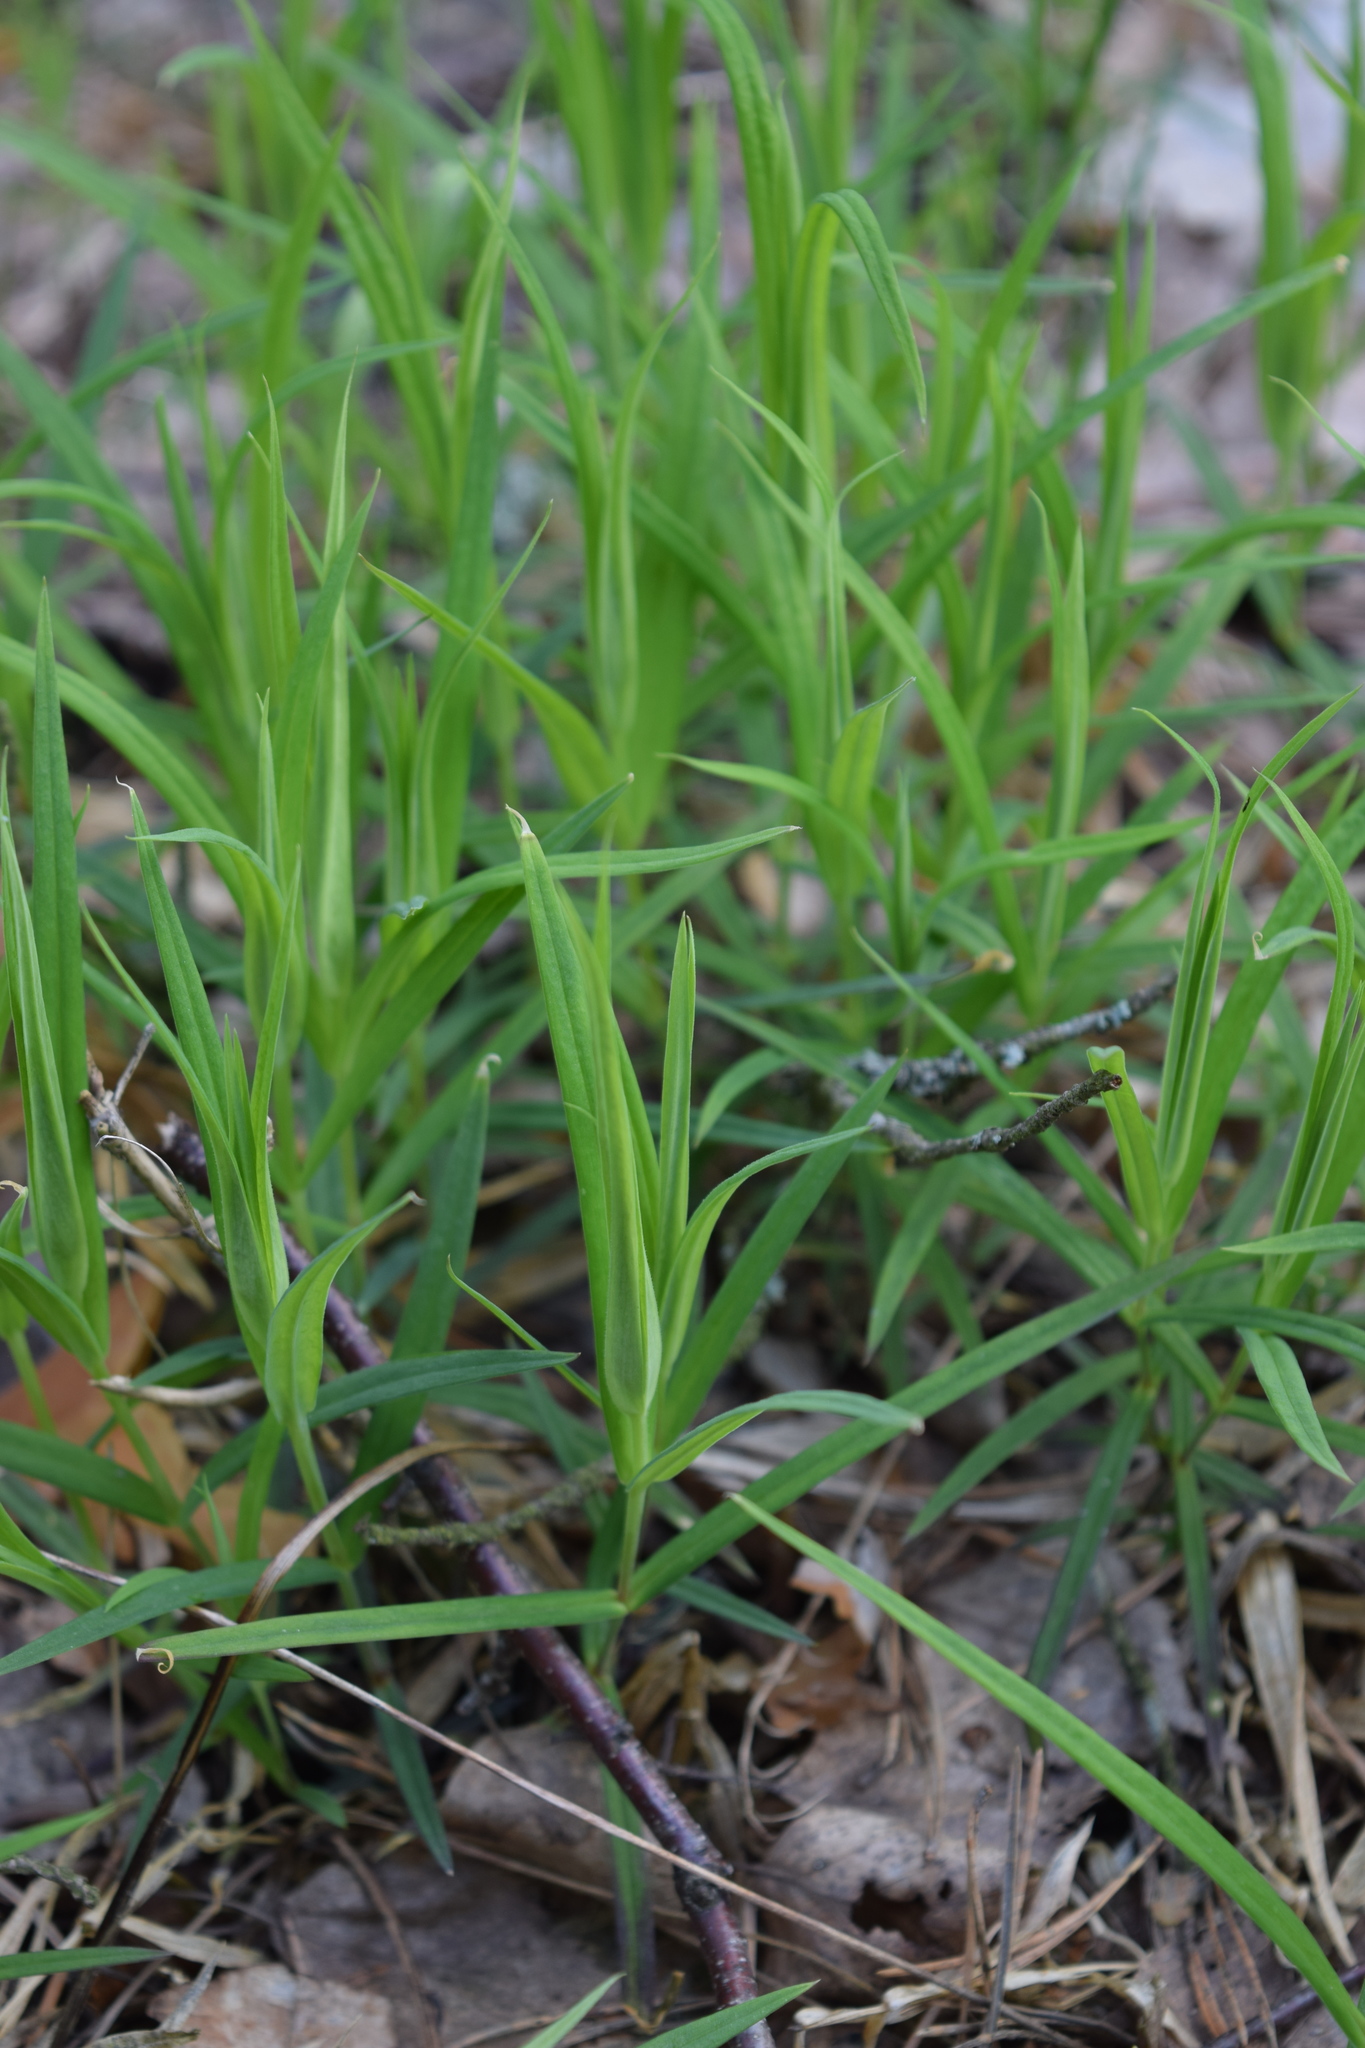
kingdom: Plantae
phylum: Tracheophyta
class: Magnoliopsida
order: Caryophyllales
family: Caryophyllaceae
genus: Rabelera
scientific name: Rabelera holostea
